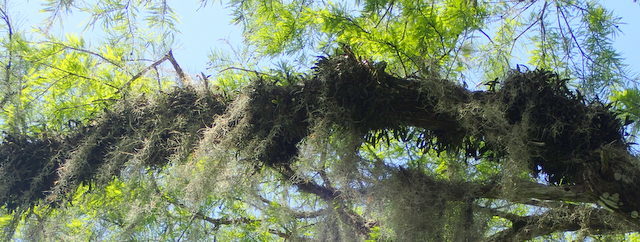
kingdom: Plantae
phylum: Tracheophyta
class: Liliopsida
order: Asparagales
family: Orchidaceae
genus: Epidendrum
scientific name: Epidendrum conopseum
